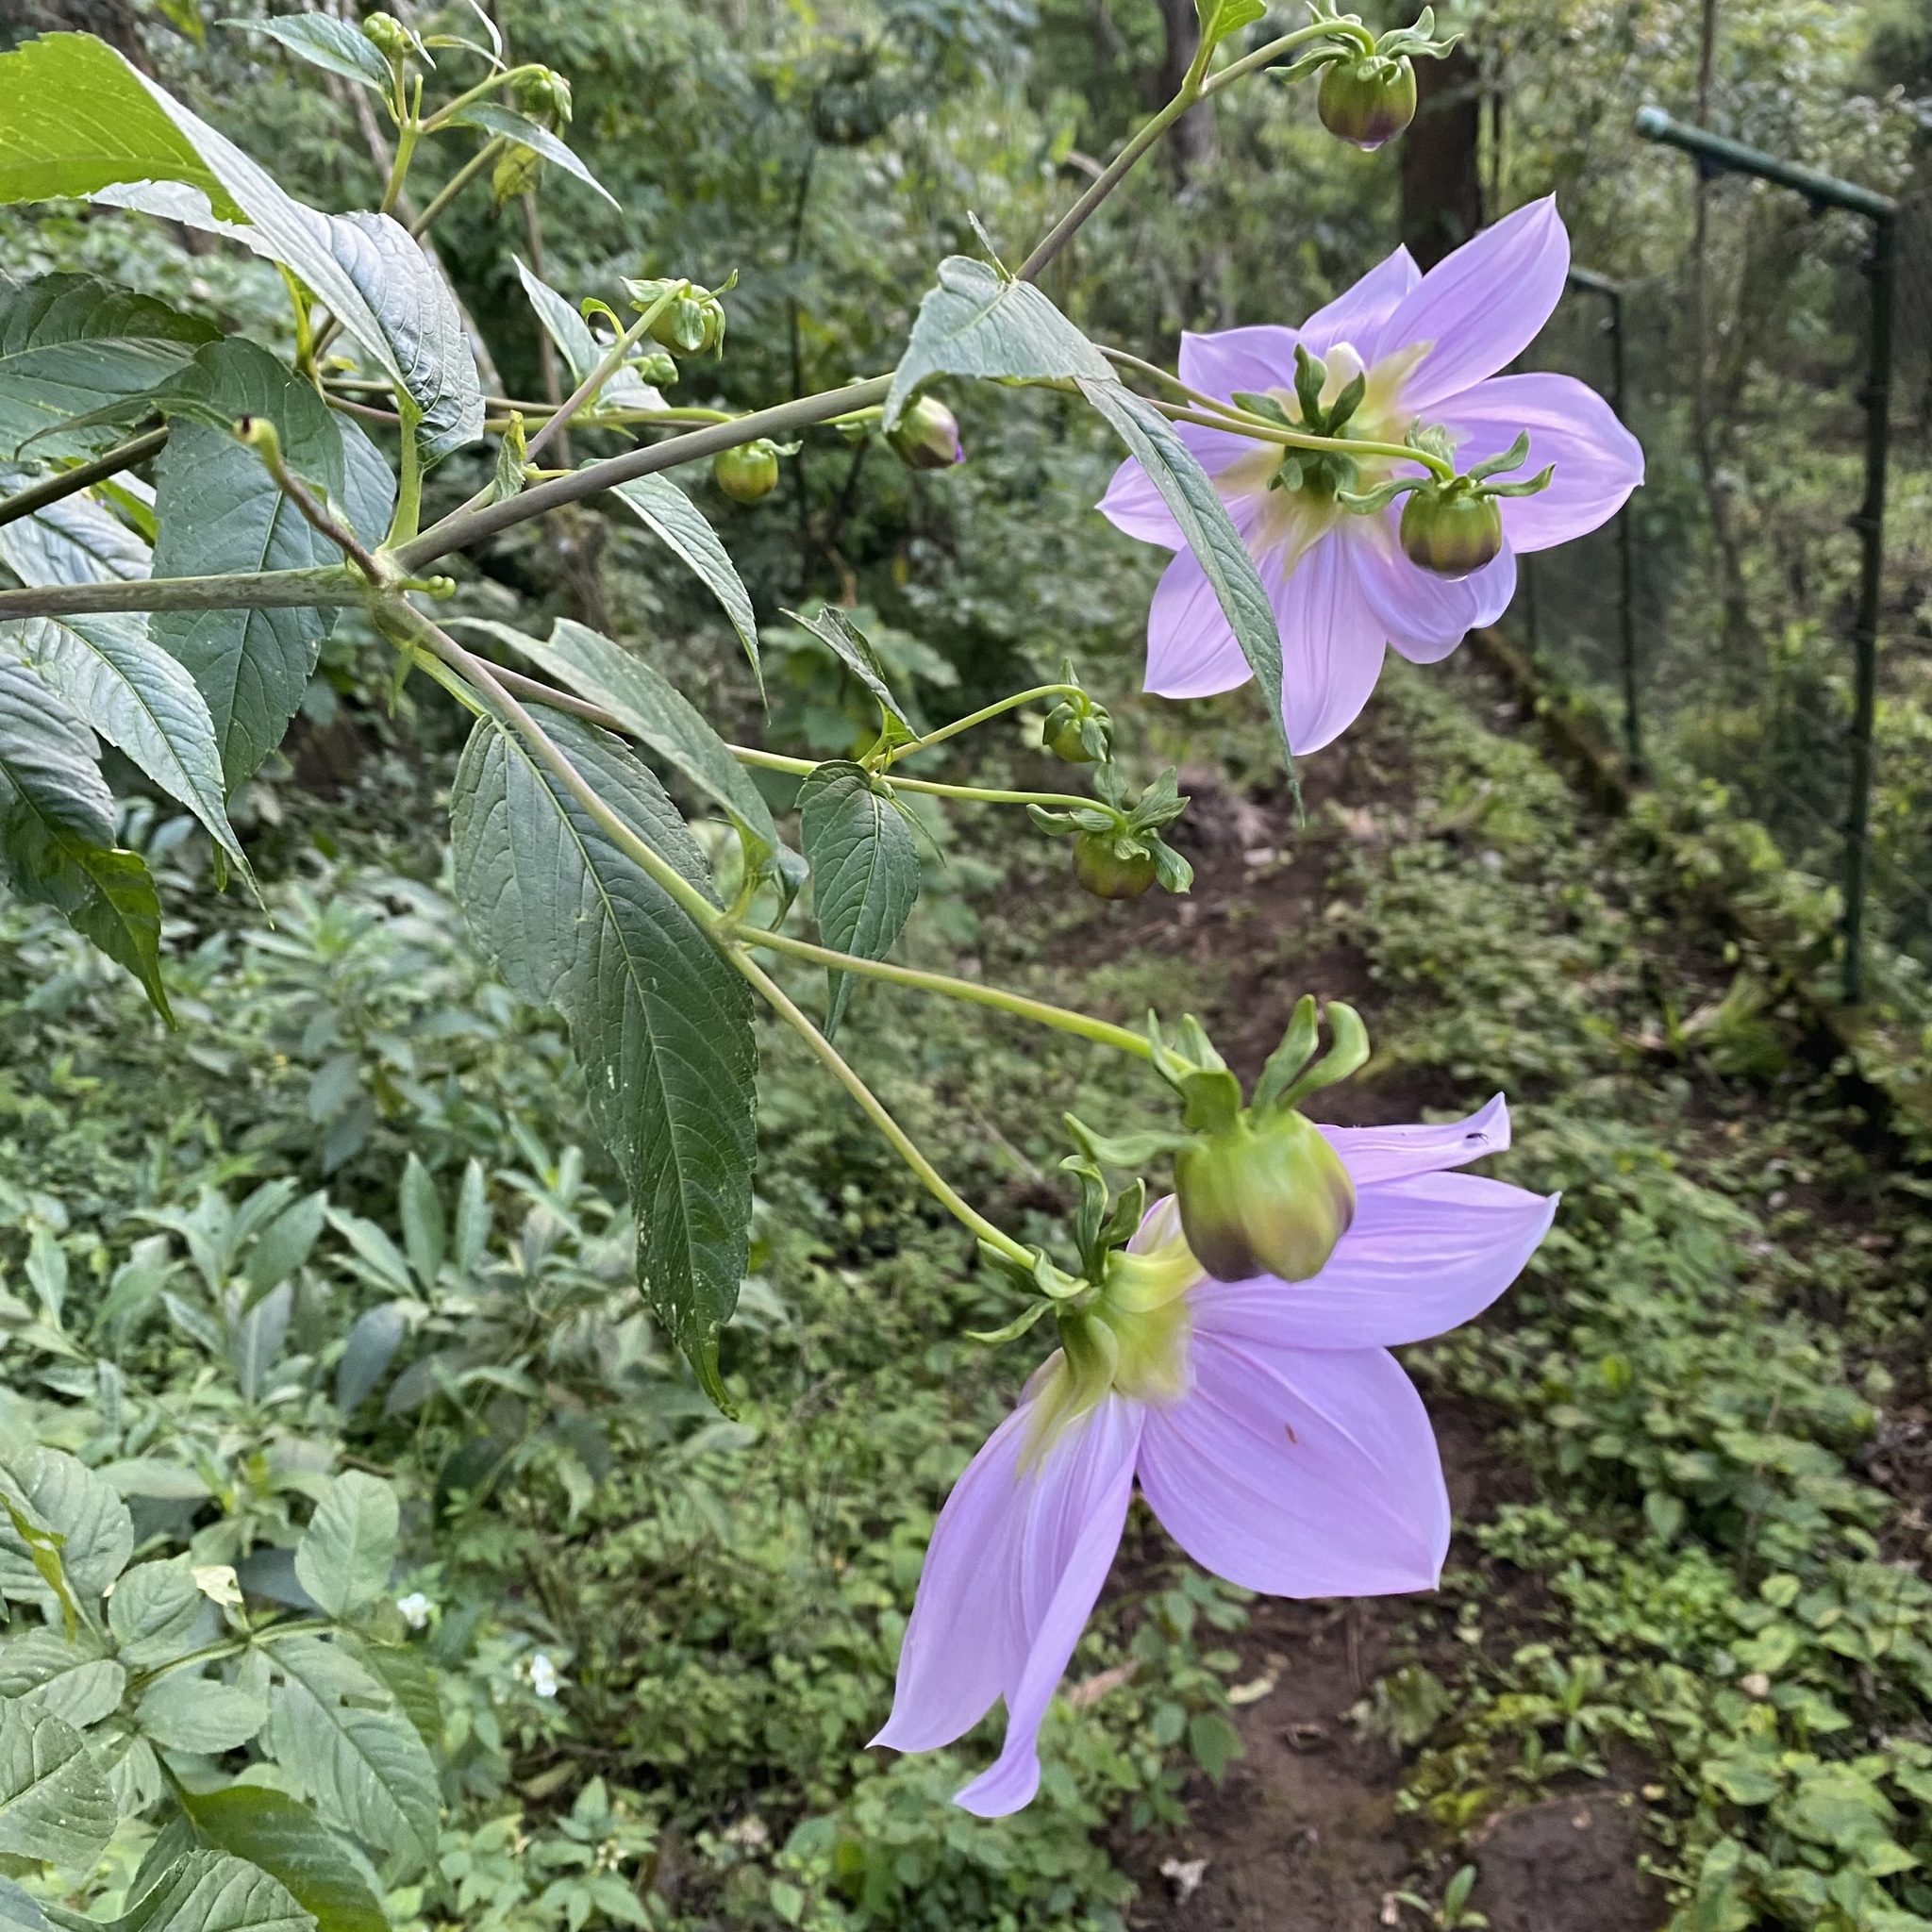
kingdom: Plantae
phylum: Tracheophyta
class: Magnoliopsida
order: Asterales
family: Asteraceae
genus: Dahlia
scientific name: Dahlia imperialis
